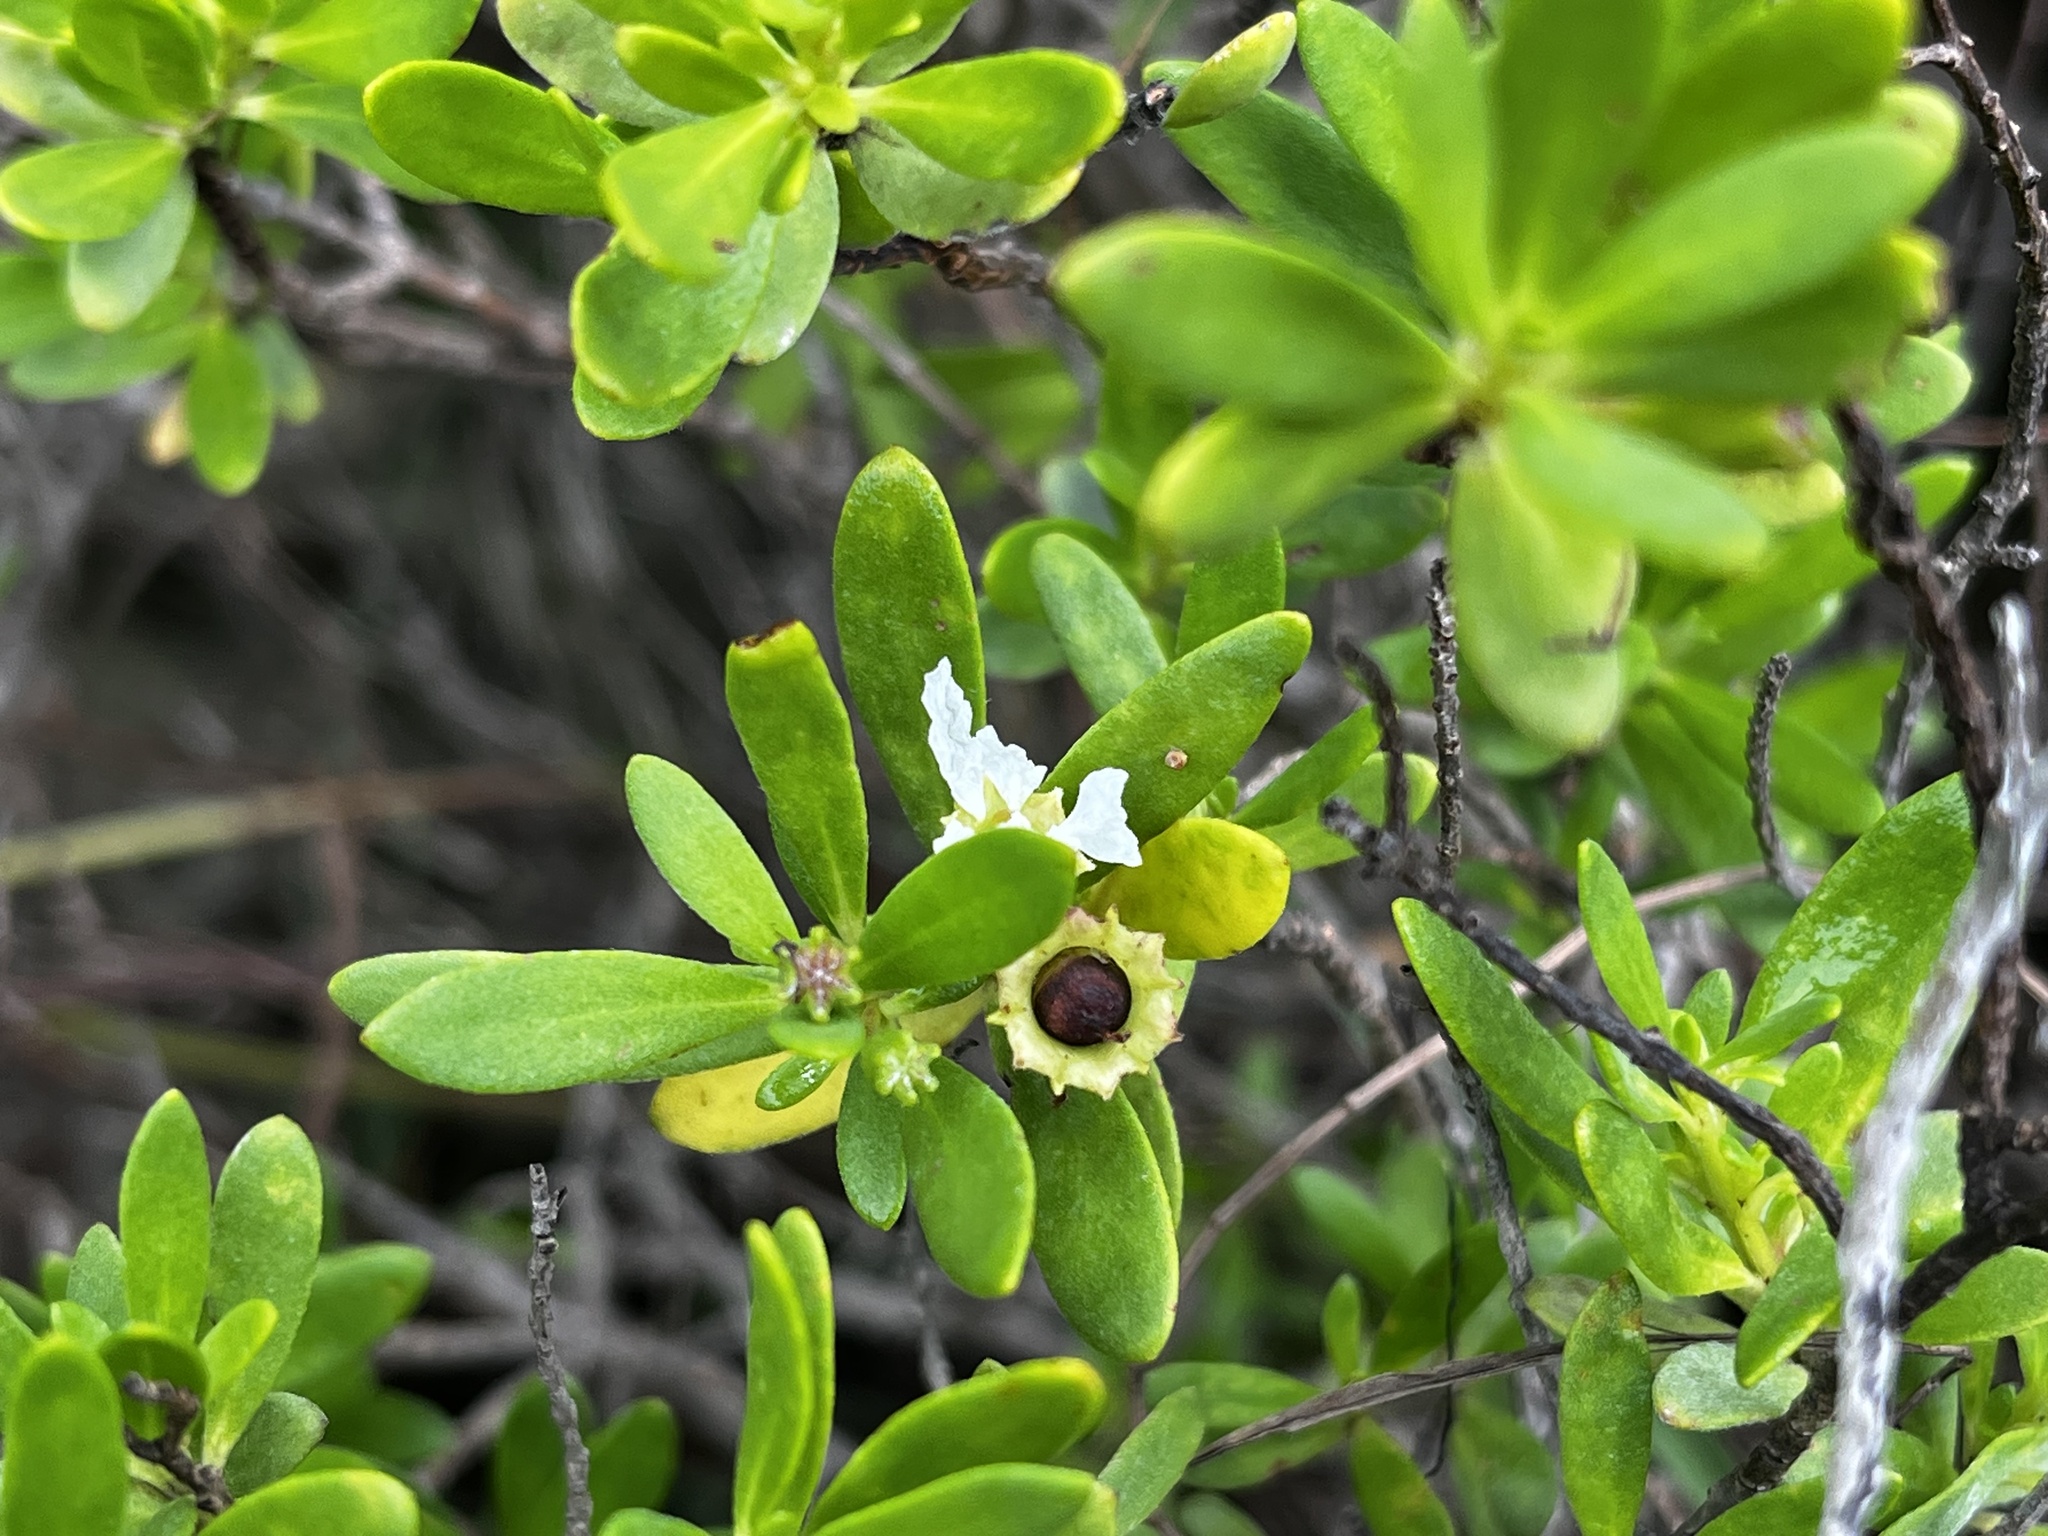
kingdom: Plantae
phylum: Tracheophyta
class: Magnoliopsida
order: Myrtales
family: Lythraceae
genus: Pemphis
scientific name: Pemphis acidula
